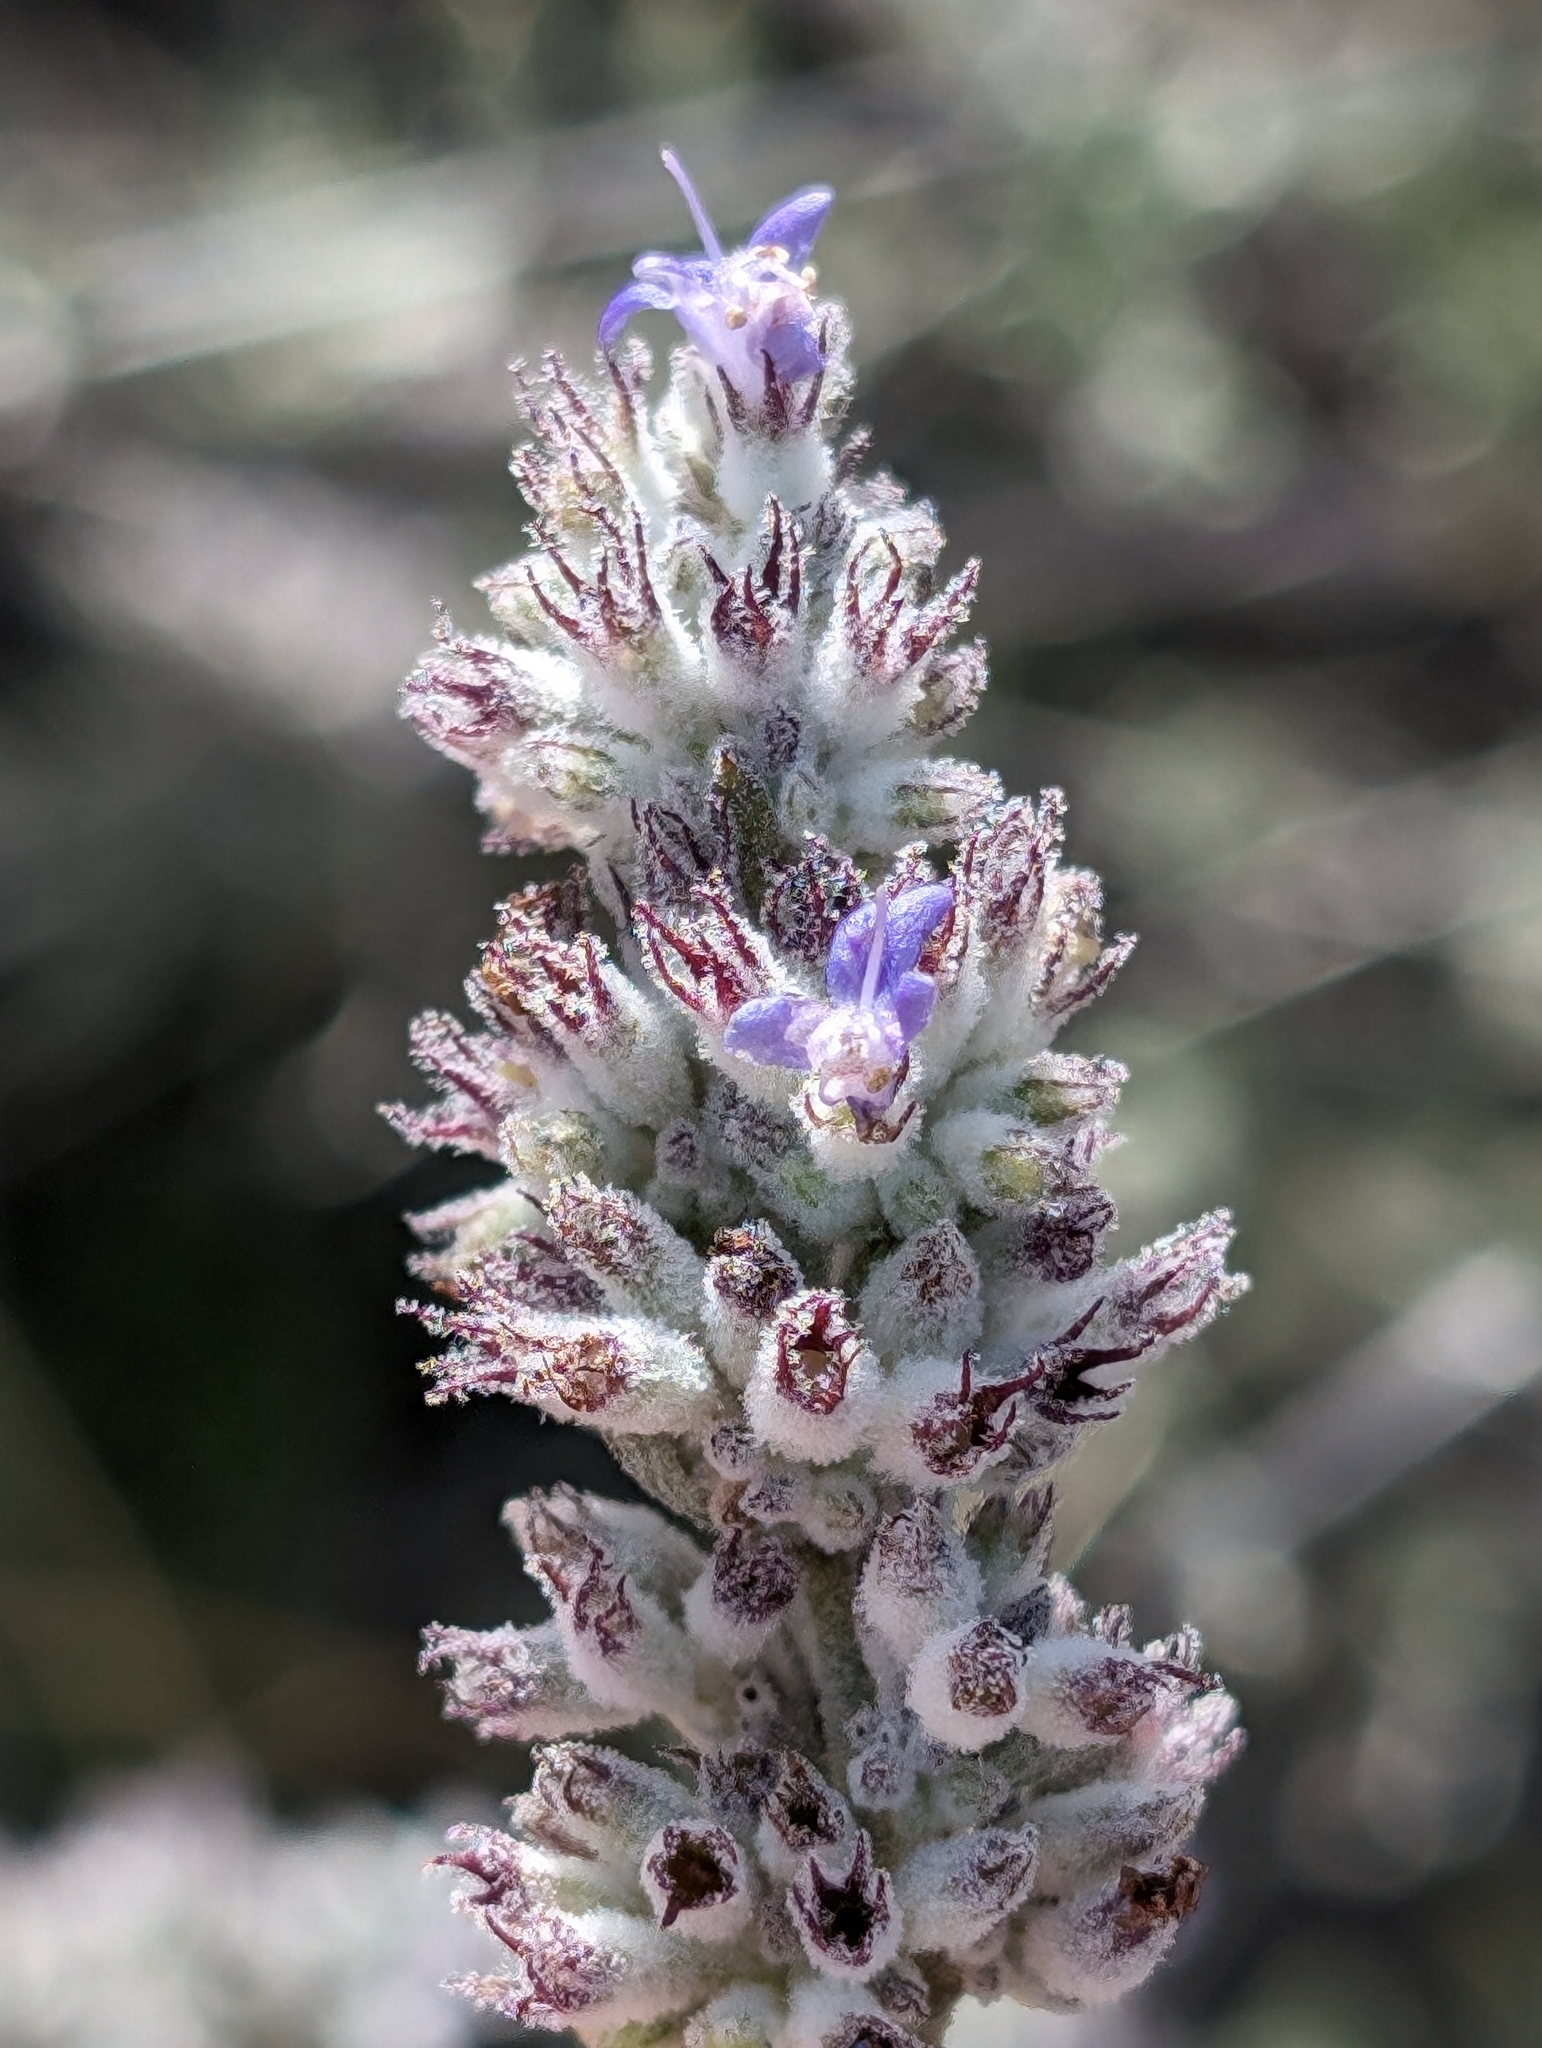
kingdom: Plantae
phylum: Tracheophyta
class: Magnoliopsida
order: Lamiales
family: Lamiaceae
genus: Condea
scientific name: Condea emoryi
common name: Chia
